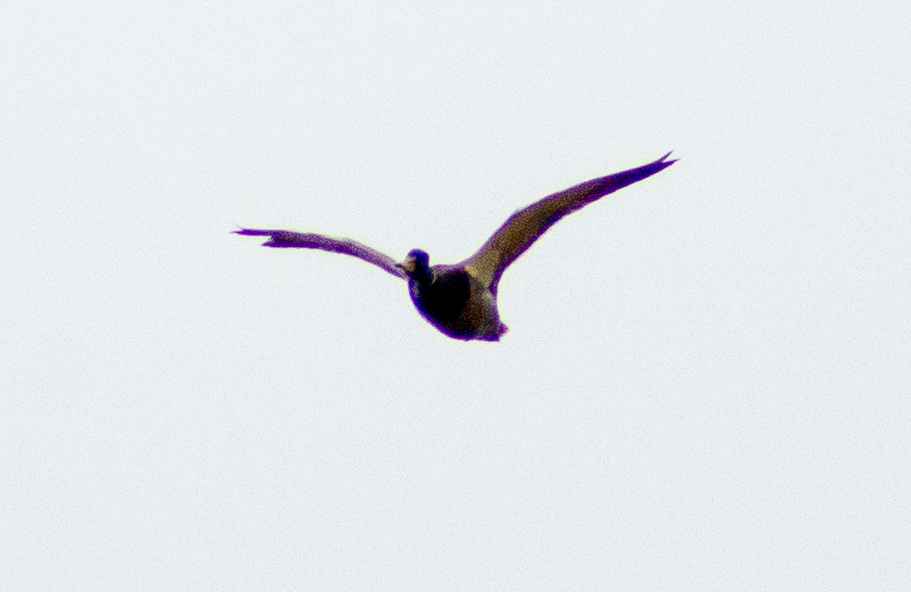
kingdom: Animalia
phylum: Chordata
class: Aves
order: Anseriformes
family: Anatidae
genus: Anas
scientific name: Anas platyrhynchos
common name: Mallard
